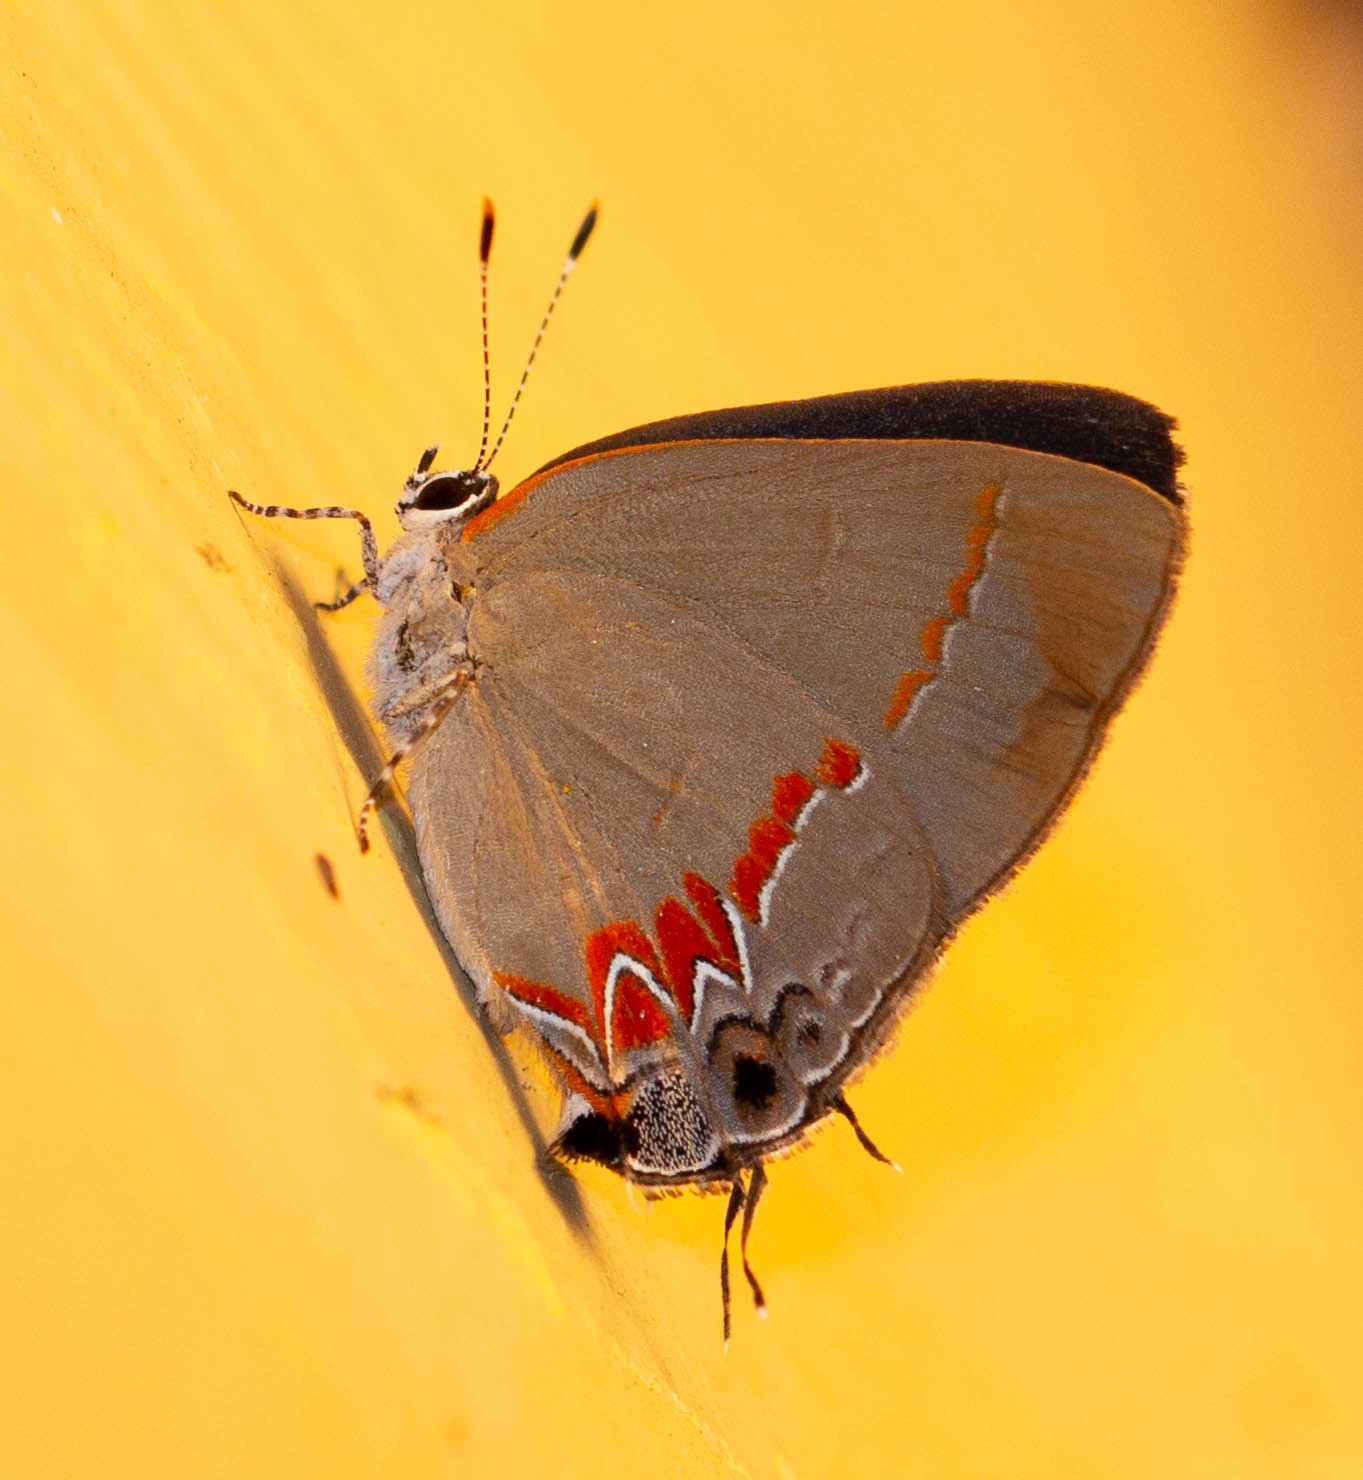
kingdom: Animalia
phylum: Arthropoda
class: Insecta
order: Lepidoptera
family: Lycaenidae
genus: Calycopis
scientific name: Calycopis cecrops
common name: Red-banded hairstreak
